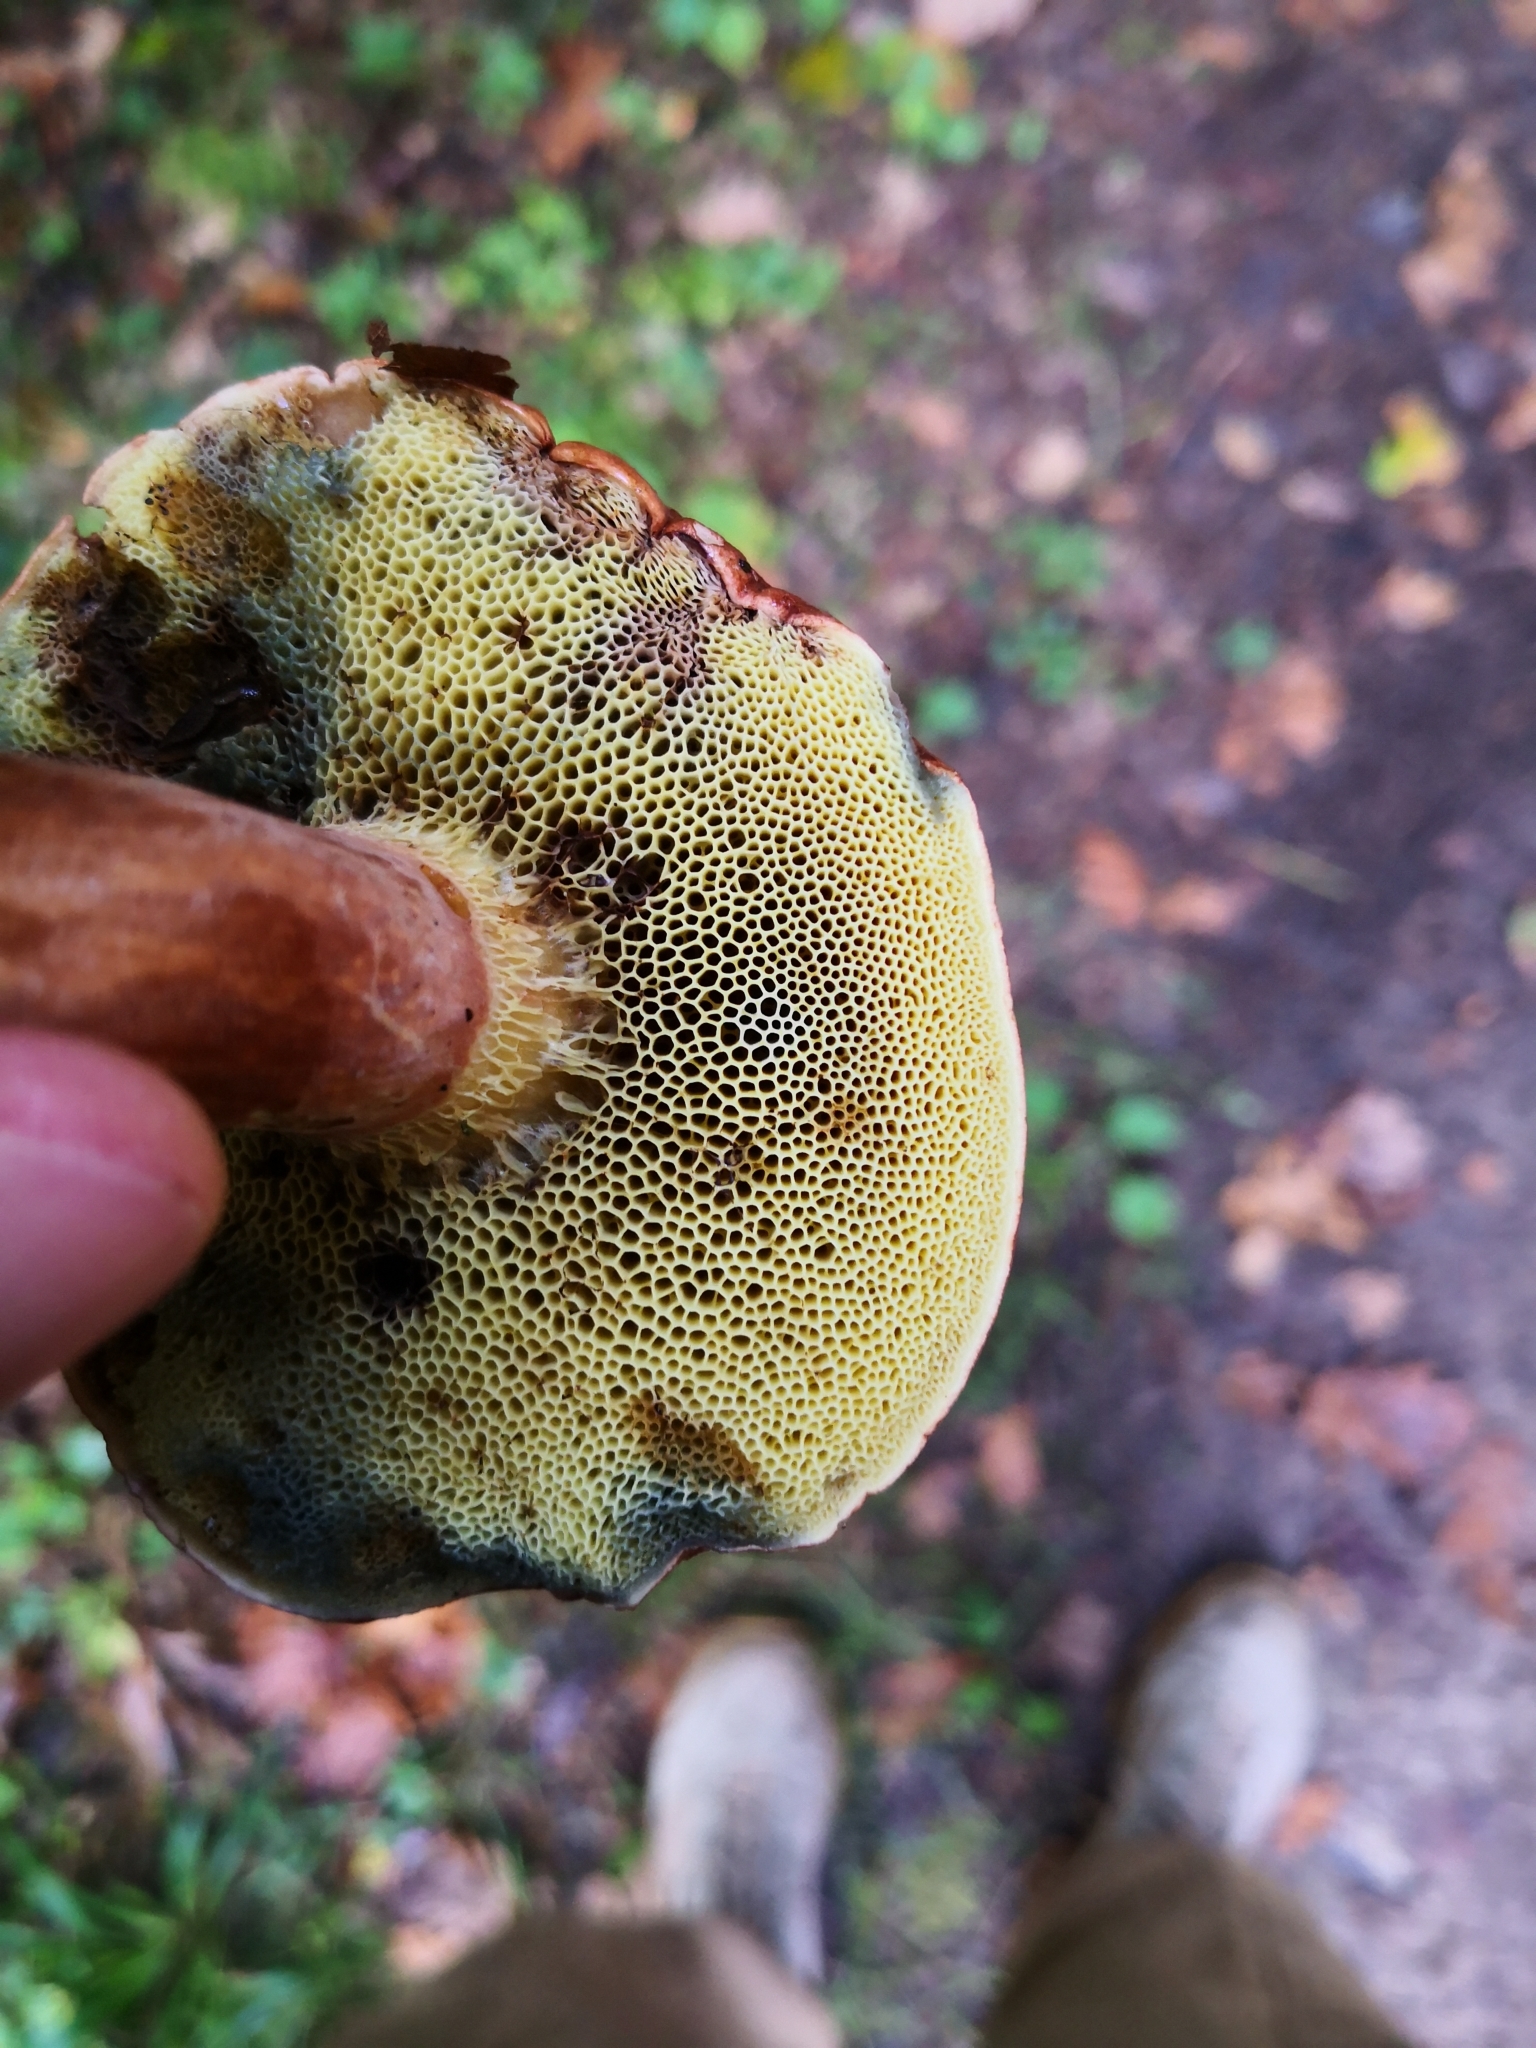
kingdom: Fungi
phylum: Basidiomycota
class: Agaricomycetes
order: Boletales
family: Boletaceae
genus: Imleria
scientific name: Imleria badia
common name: Bay bolete
